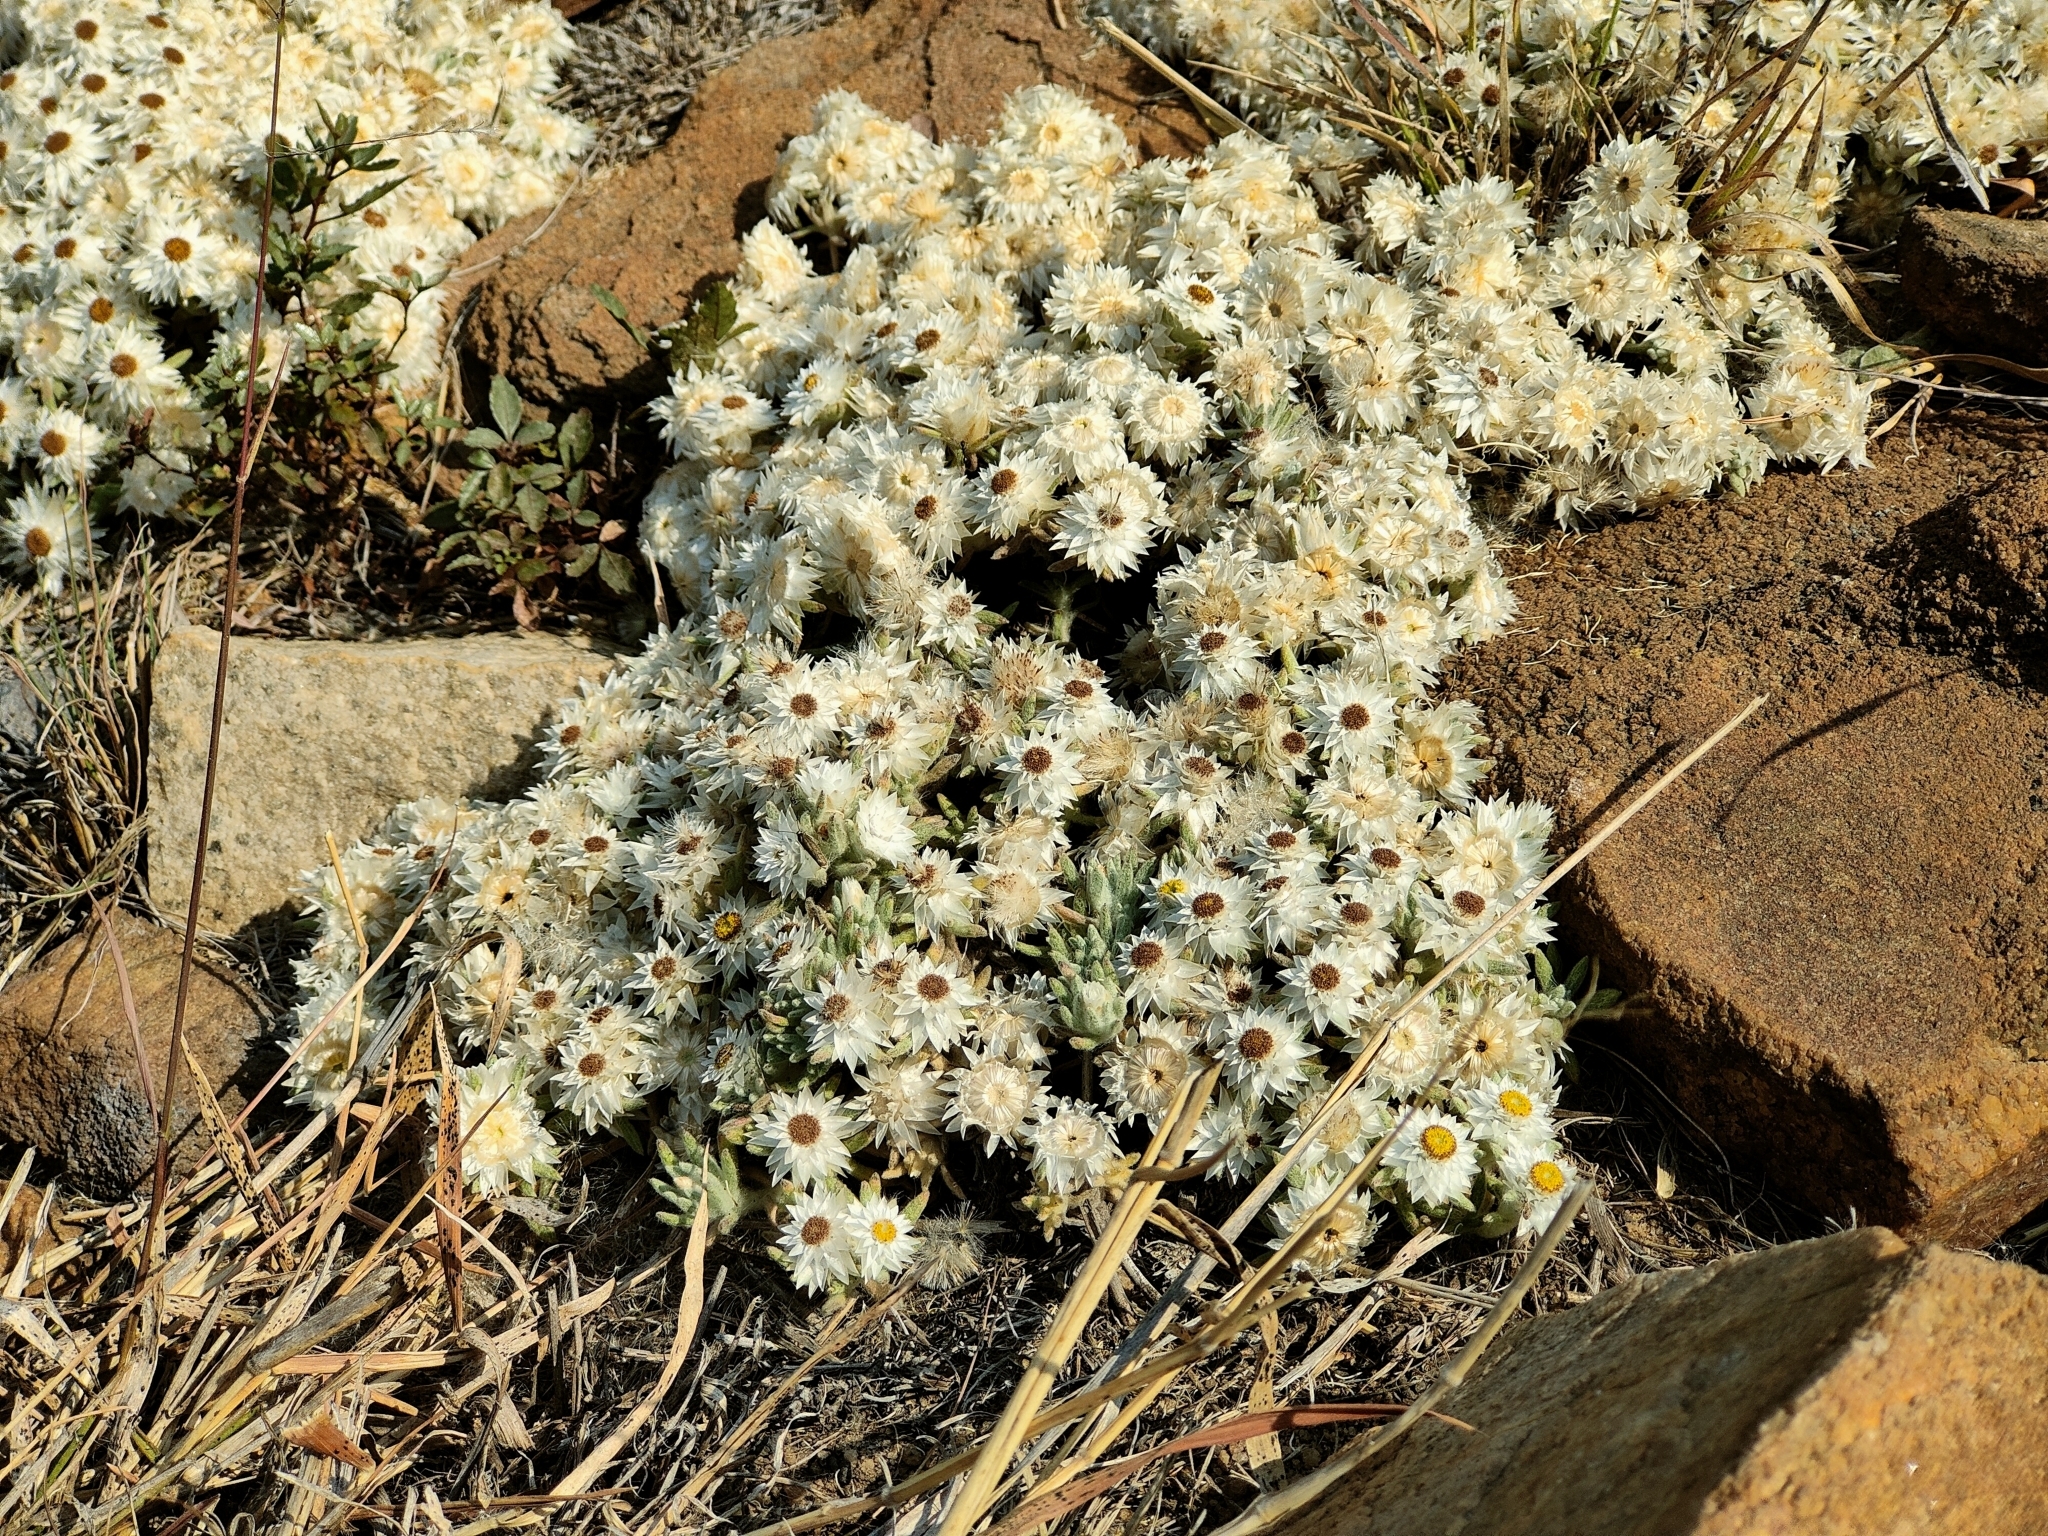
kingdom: Plantae
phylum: Tracheophyta
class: Magnoliopsida
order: Asterales
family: Asteraceae
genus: Helichrysum
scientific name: Helichrysum cerastioides
